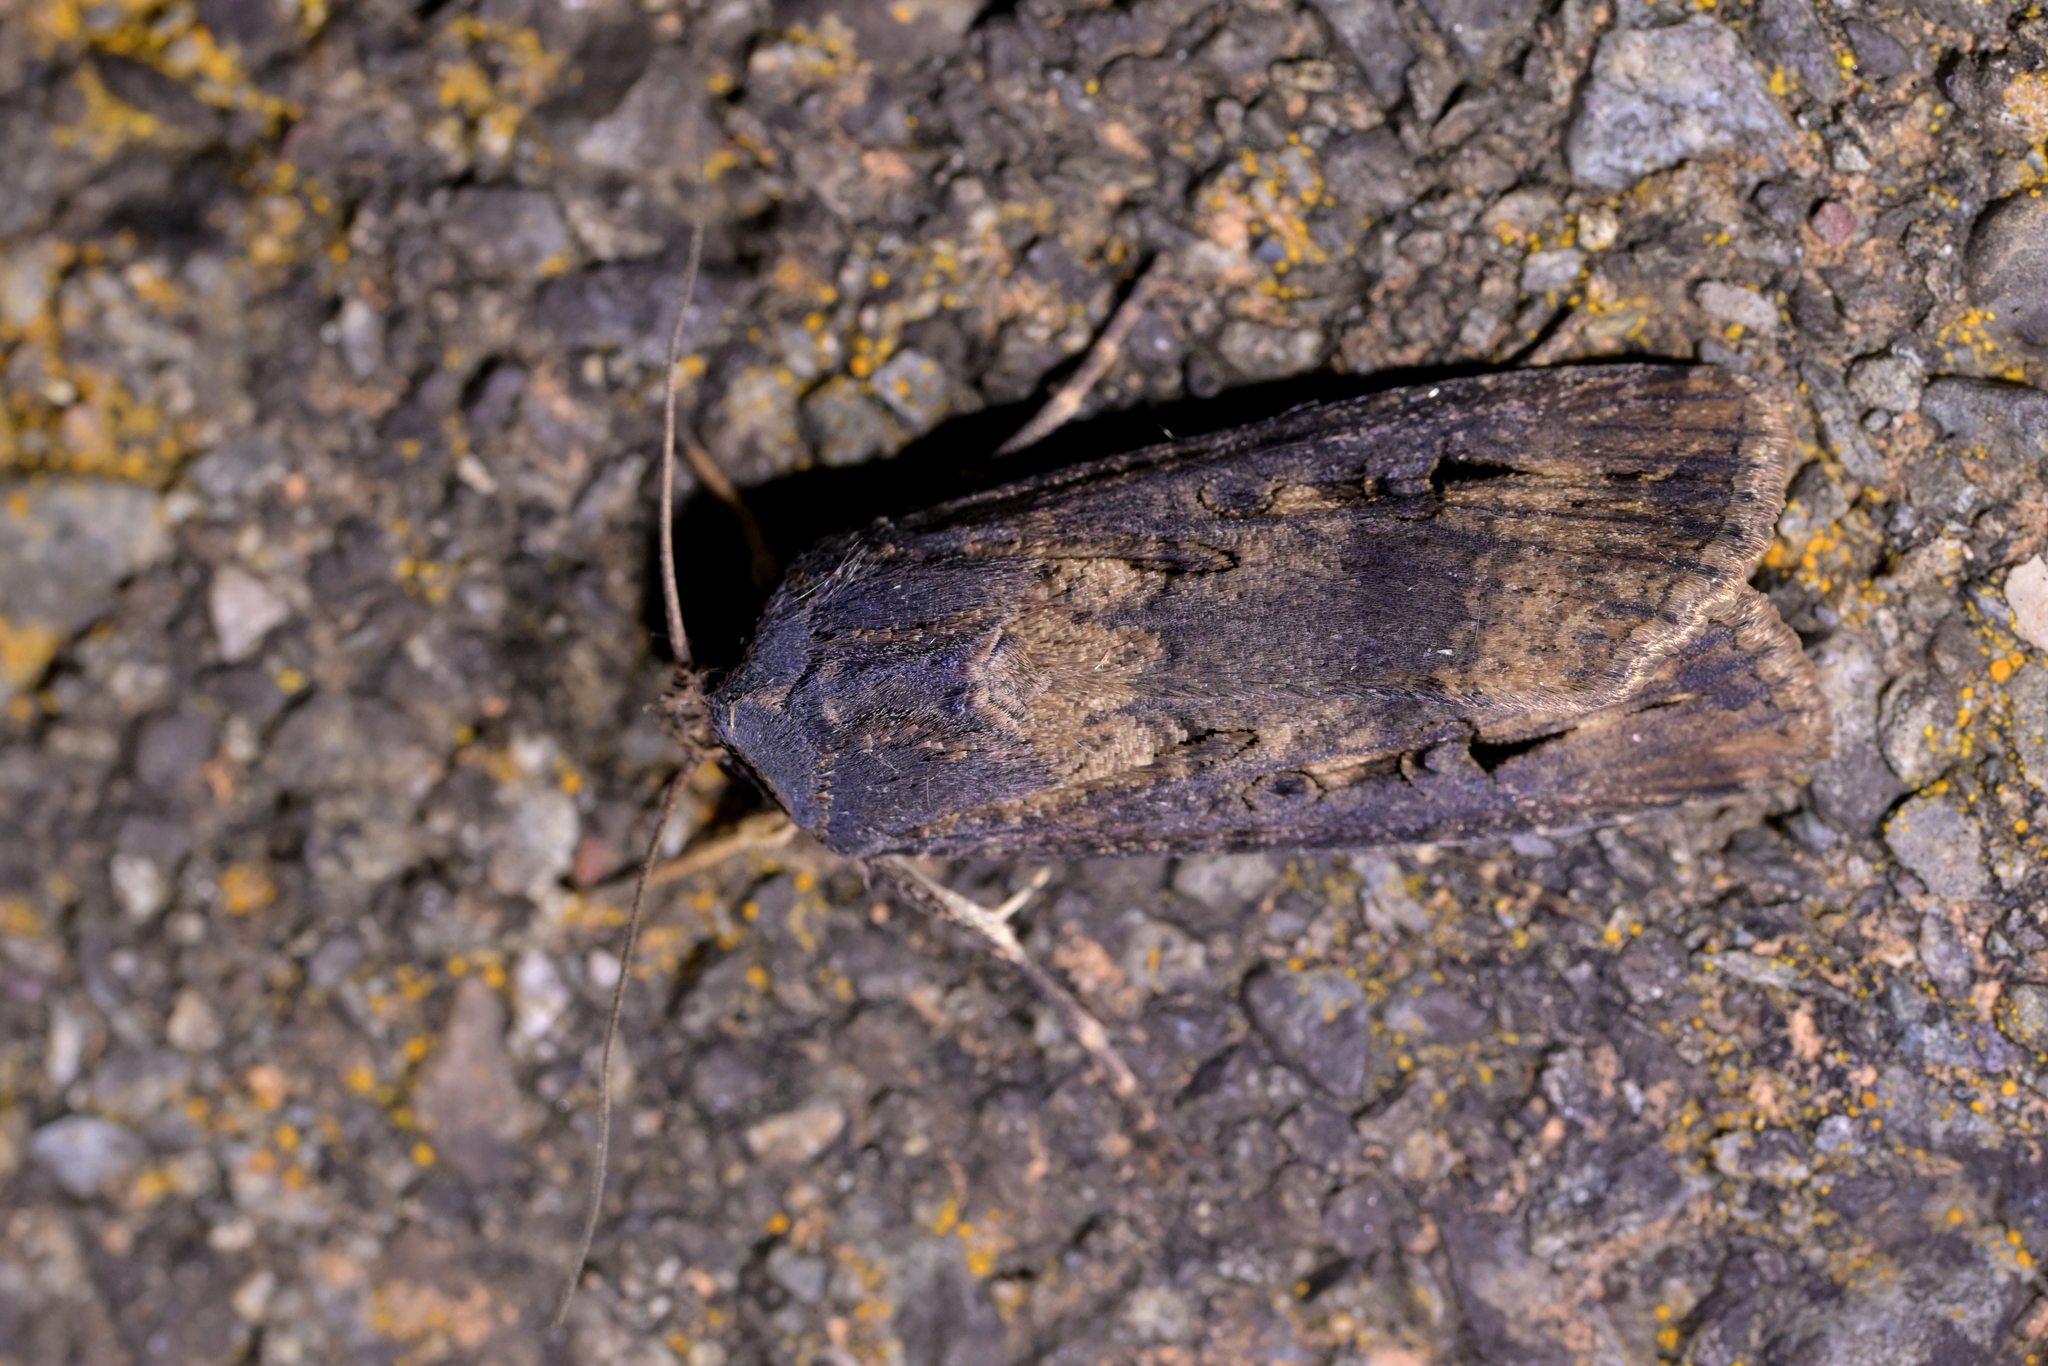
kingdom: Animalia
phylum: Arthropoda
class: Insecta
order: Lepidoptera
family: Noctuidae
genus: Agrotis
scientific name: Agrotis ipsilon
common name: Dark sword-grass
